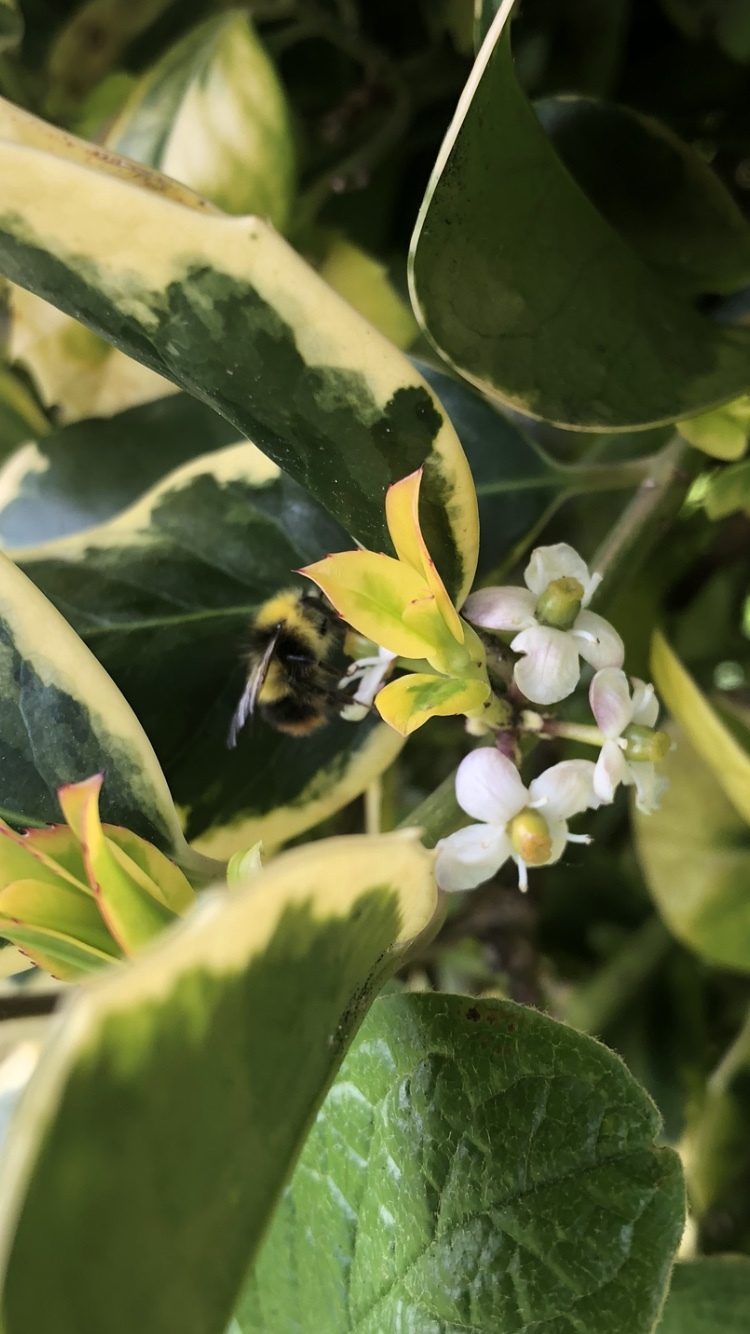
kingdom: Animalia
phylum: Arthropoda
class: Insecta
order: Hymenoptera
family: Apidae
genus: Bombus
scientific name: Bombus pratorum
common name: Early humble-bee
